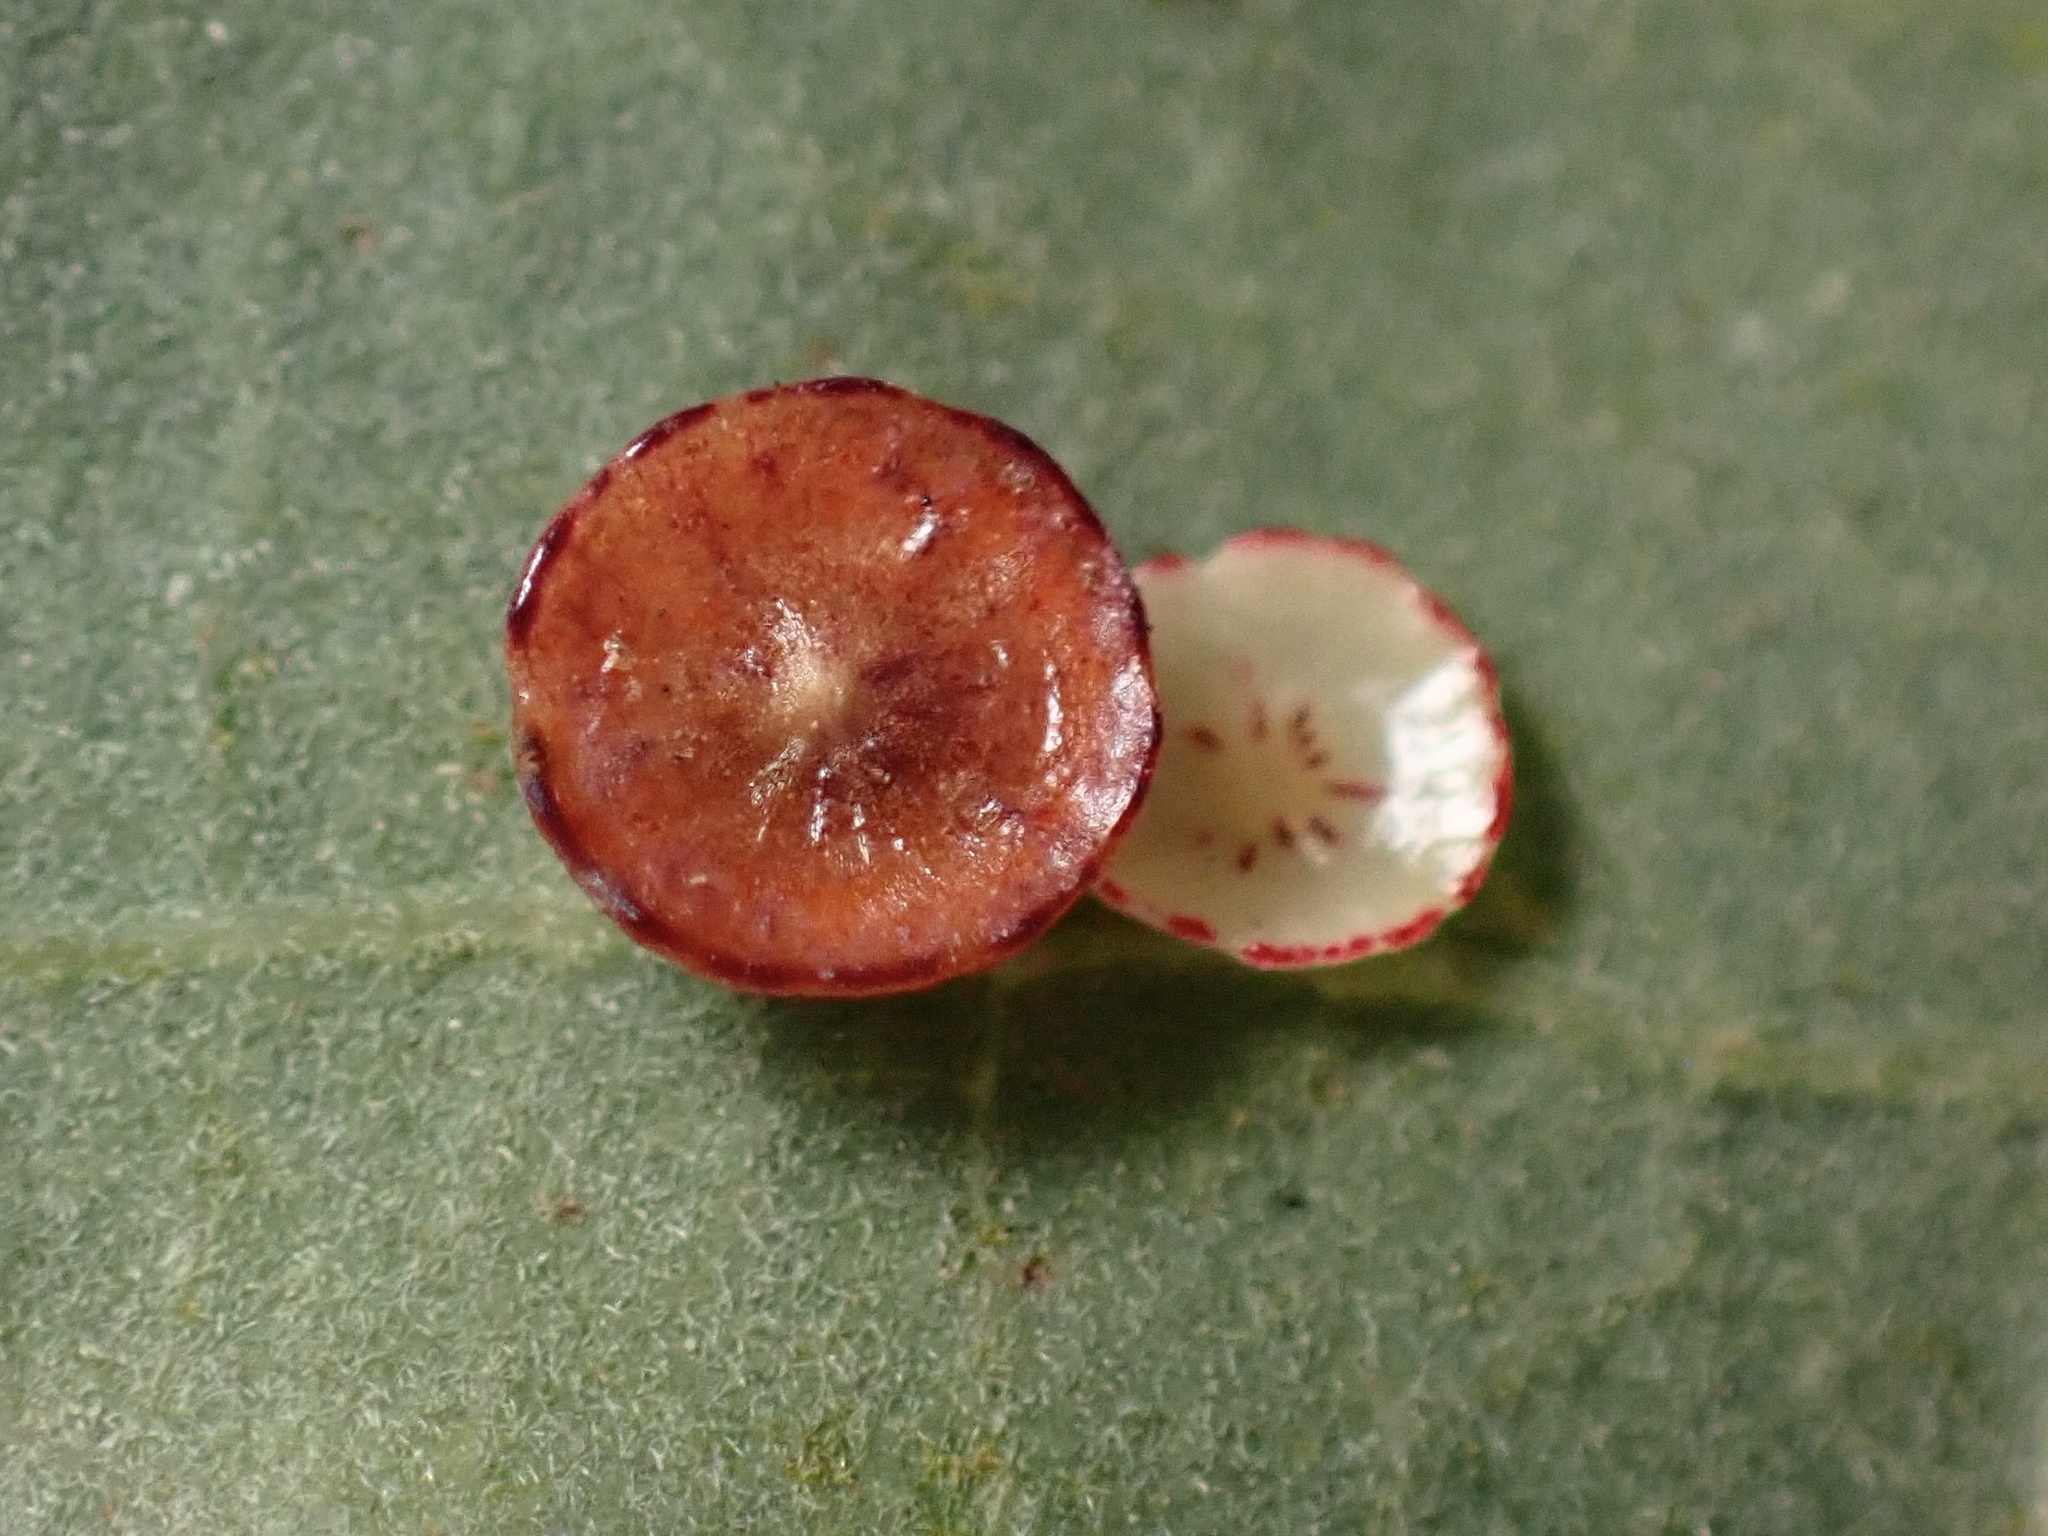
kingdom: Animalia
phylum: Arthropoda
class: Insecta
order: Hymenoptera
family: Cynipidae
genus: Andricus
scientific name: Andricus
